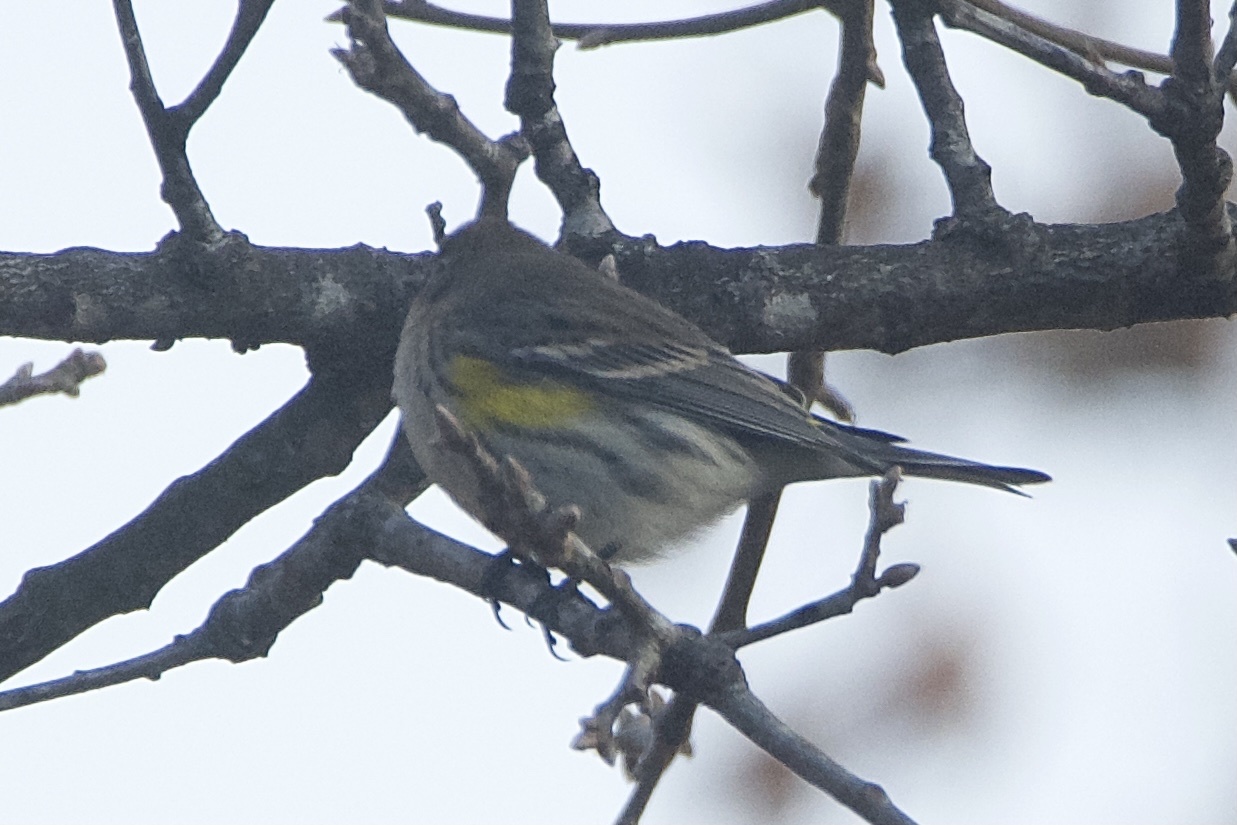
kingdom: Animalia
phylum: Chordata
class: Aves
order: Passeriformes
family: Parulidae
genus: Setophaga
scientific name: Setophaga coronata
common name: Myrtle warbler
